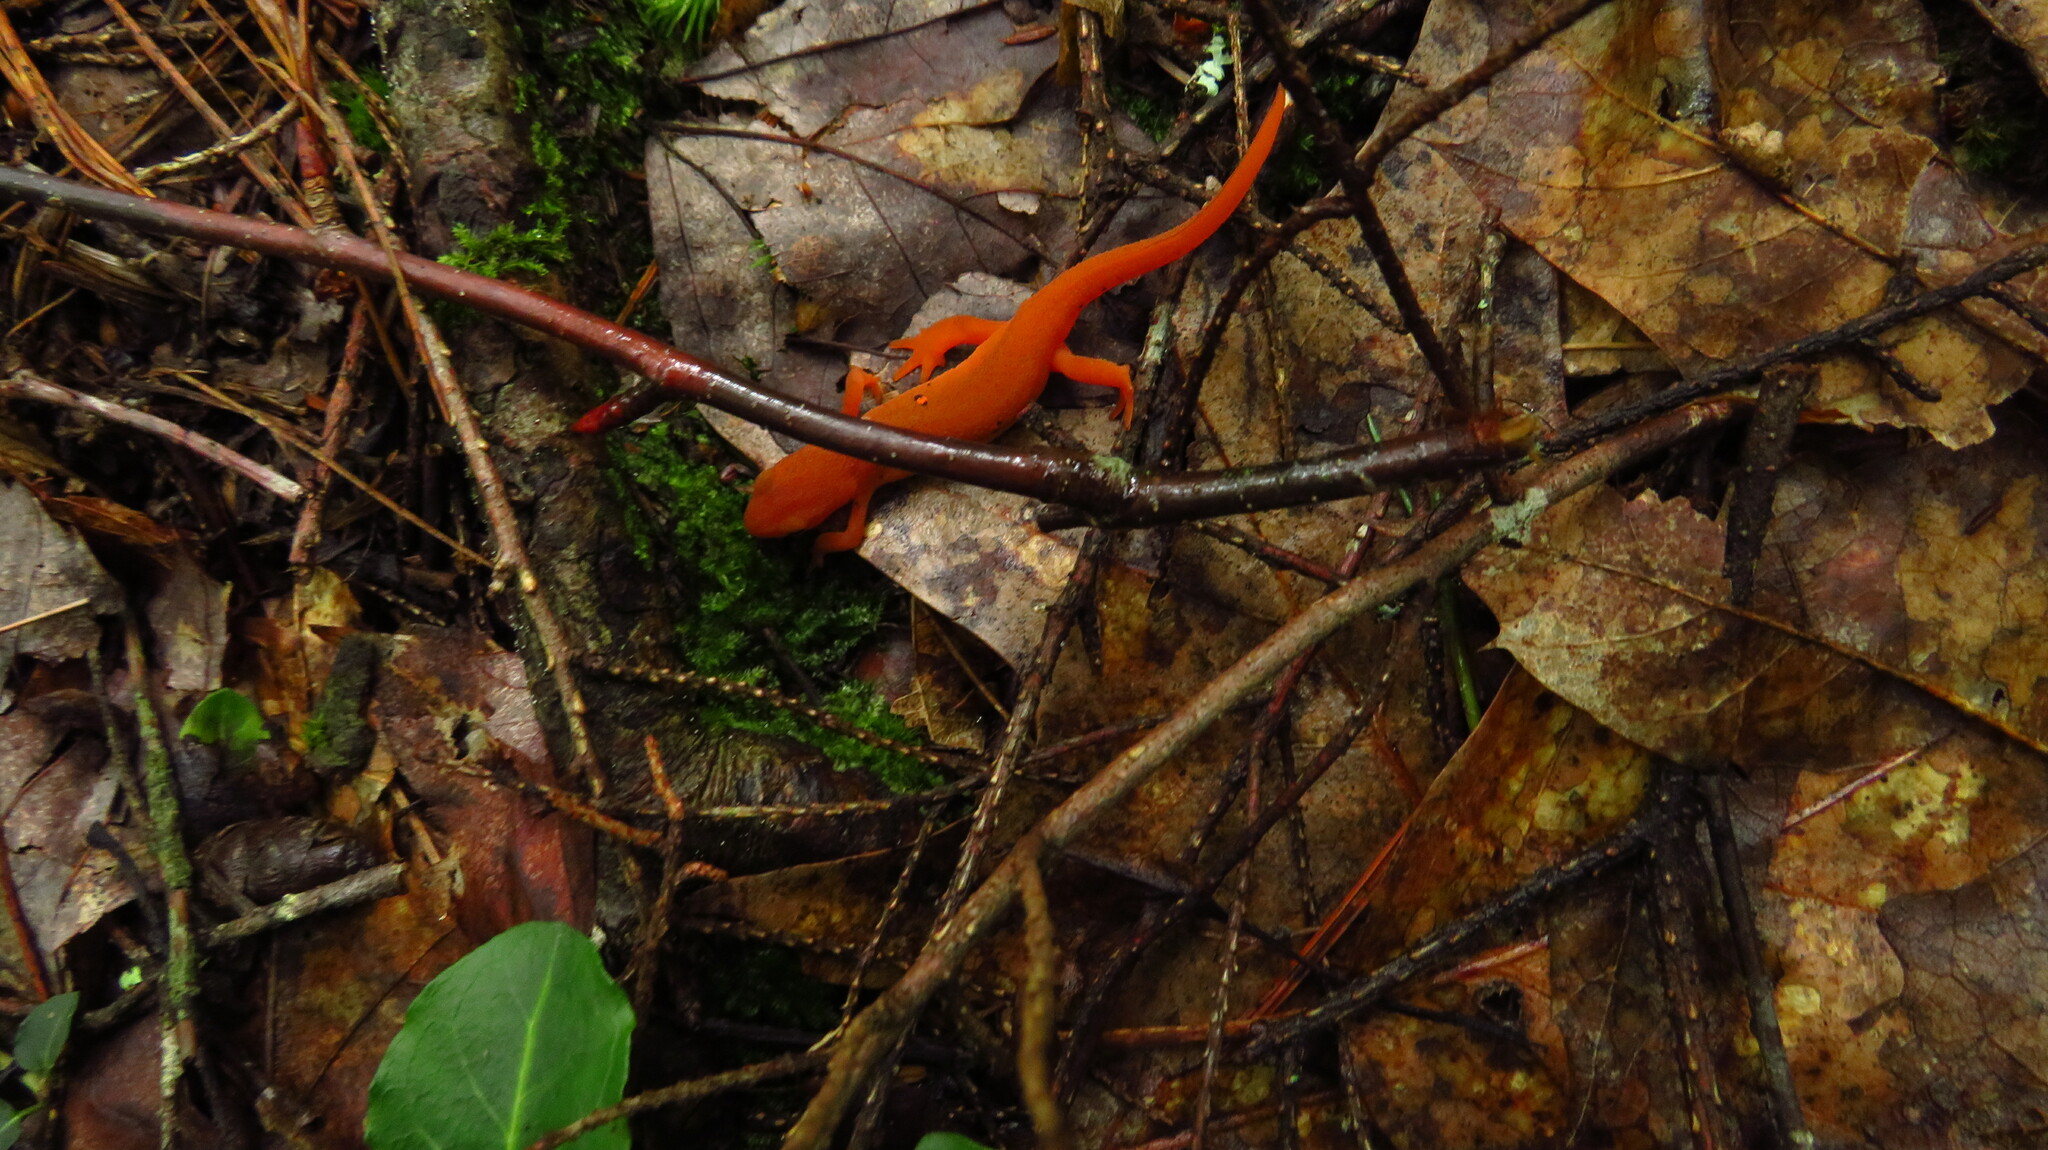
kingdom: Animalia
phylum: Chordata
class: Amphibia
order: Caudata
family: Salamandridae
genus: Notophthalmus
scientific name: Notophthalmus viridescens
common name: Eastern newt
